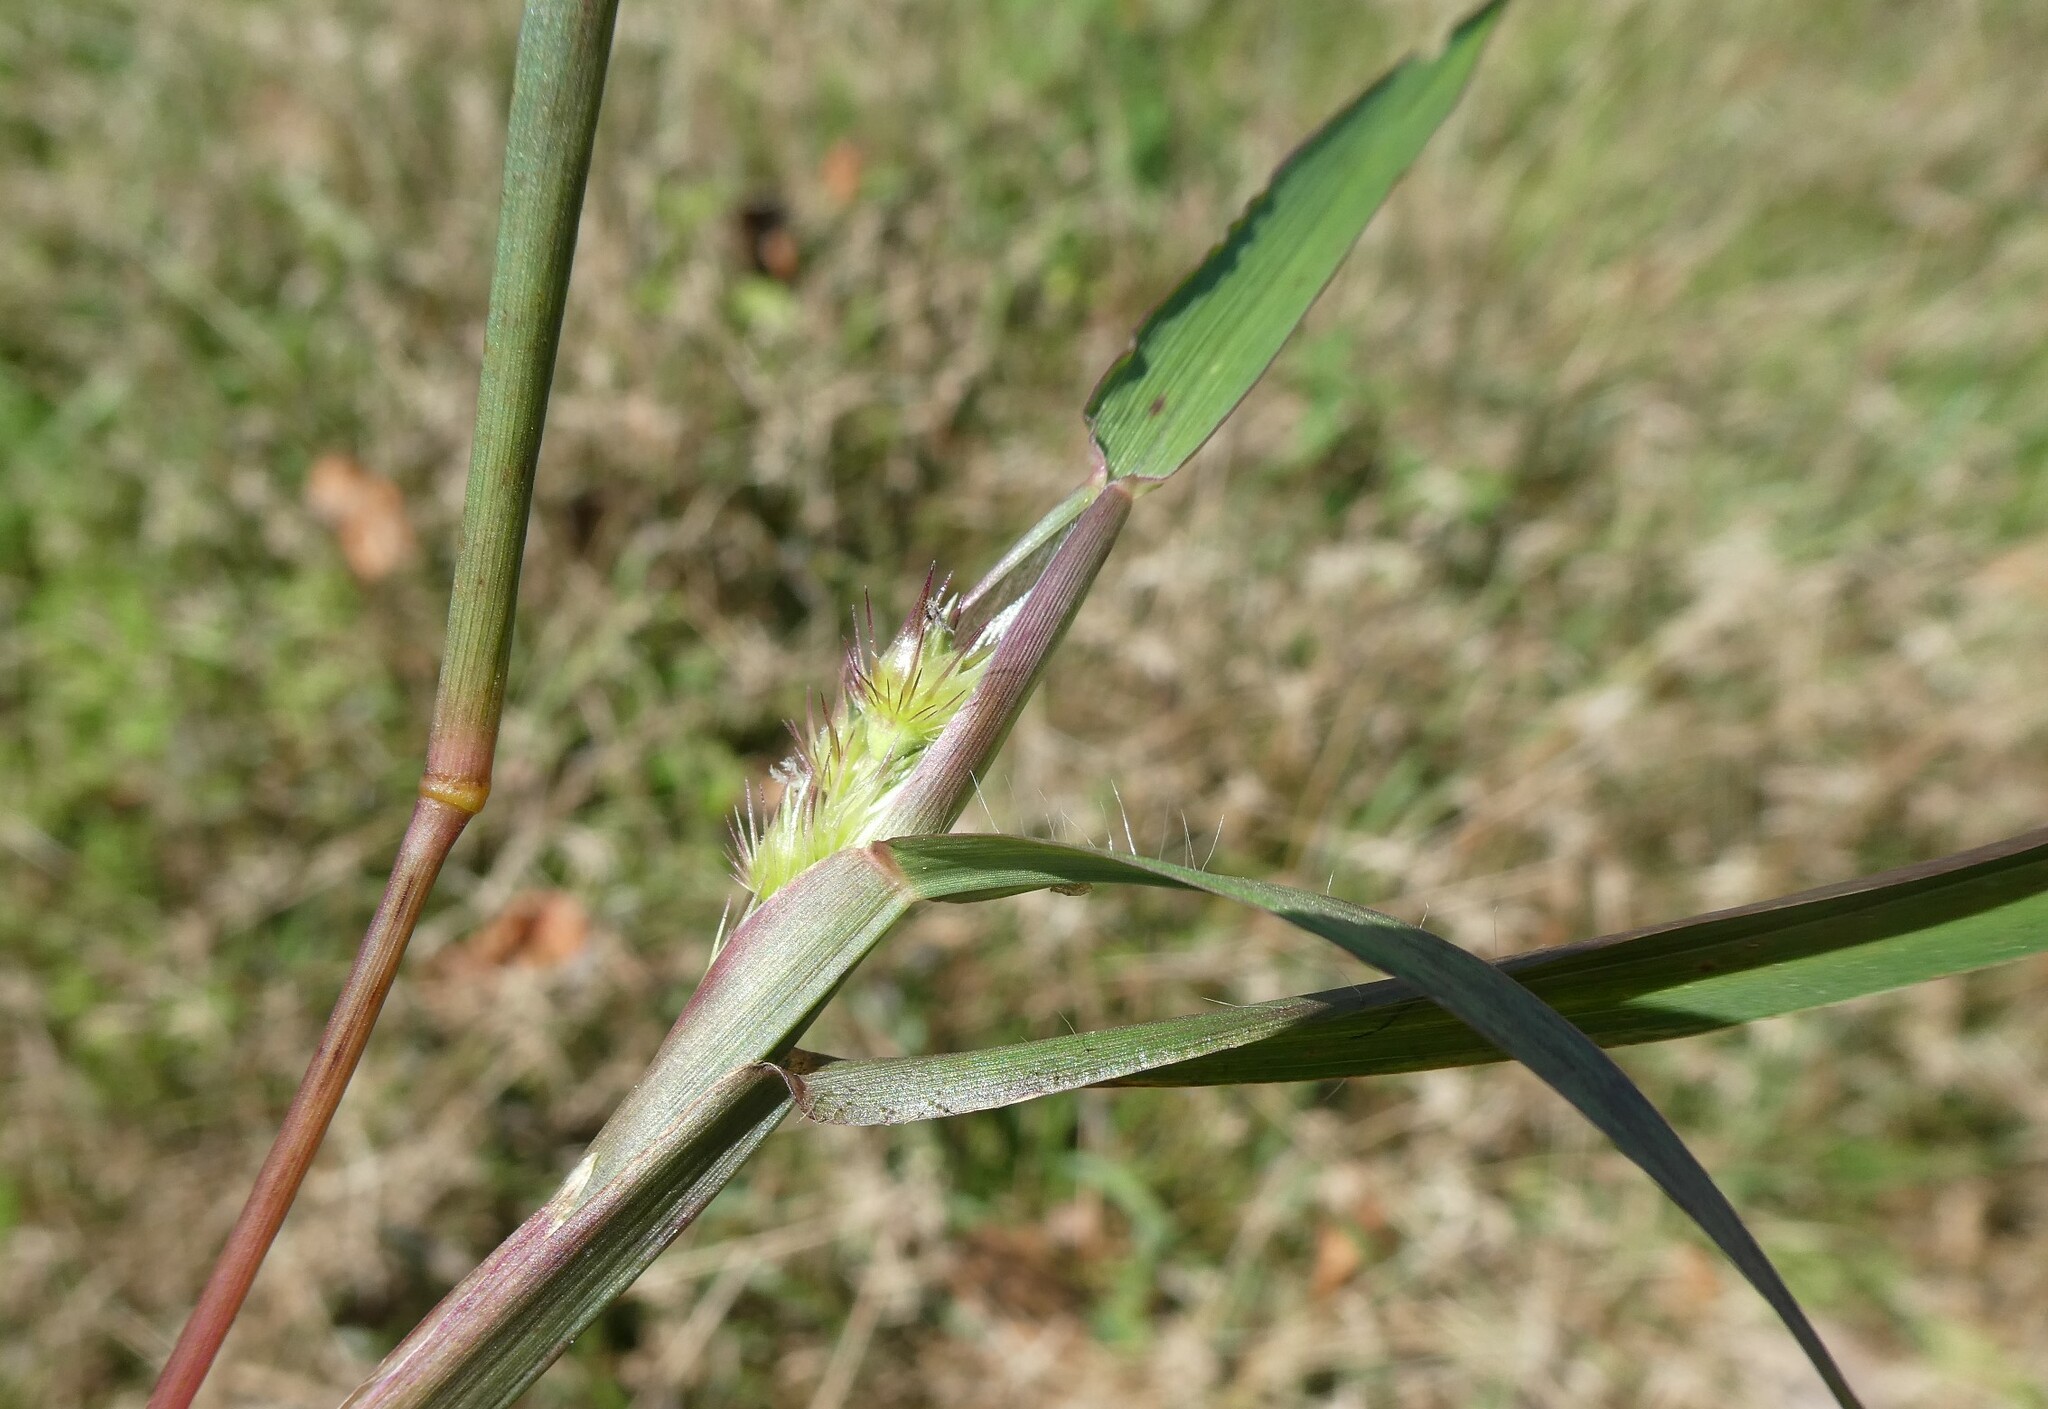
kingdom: Plantae
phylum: Tracheophyta
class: Liliopsida
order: Poales
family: Poaceae
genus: Cenchrus
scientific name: Cenchrus echinatus
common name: Southern sandbur
